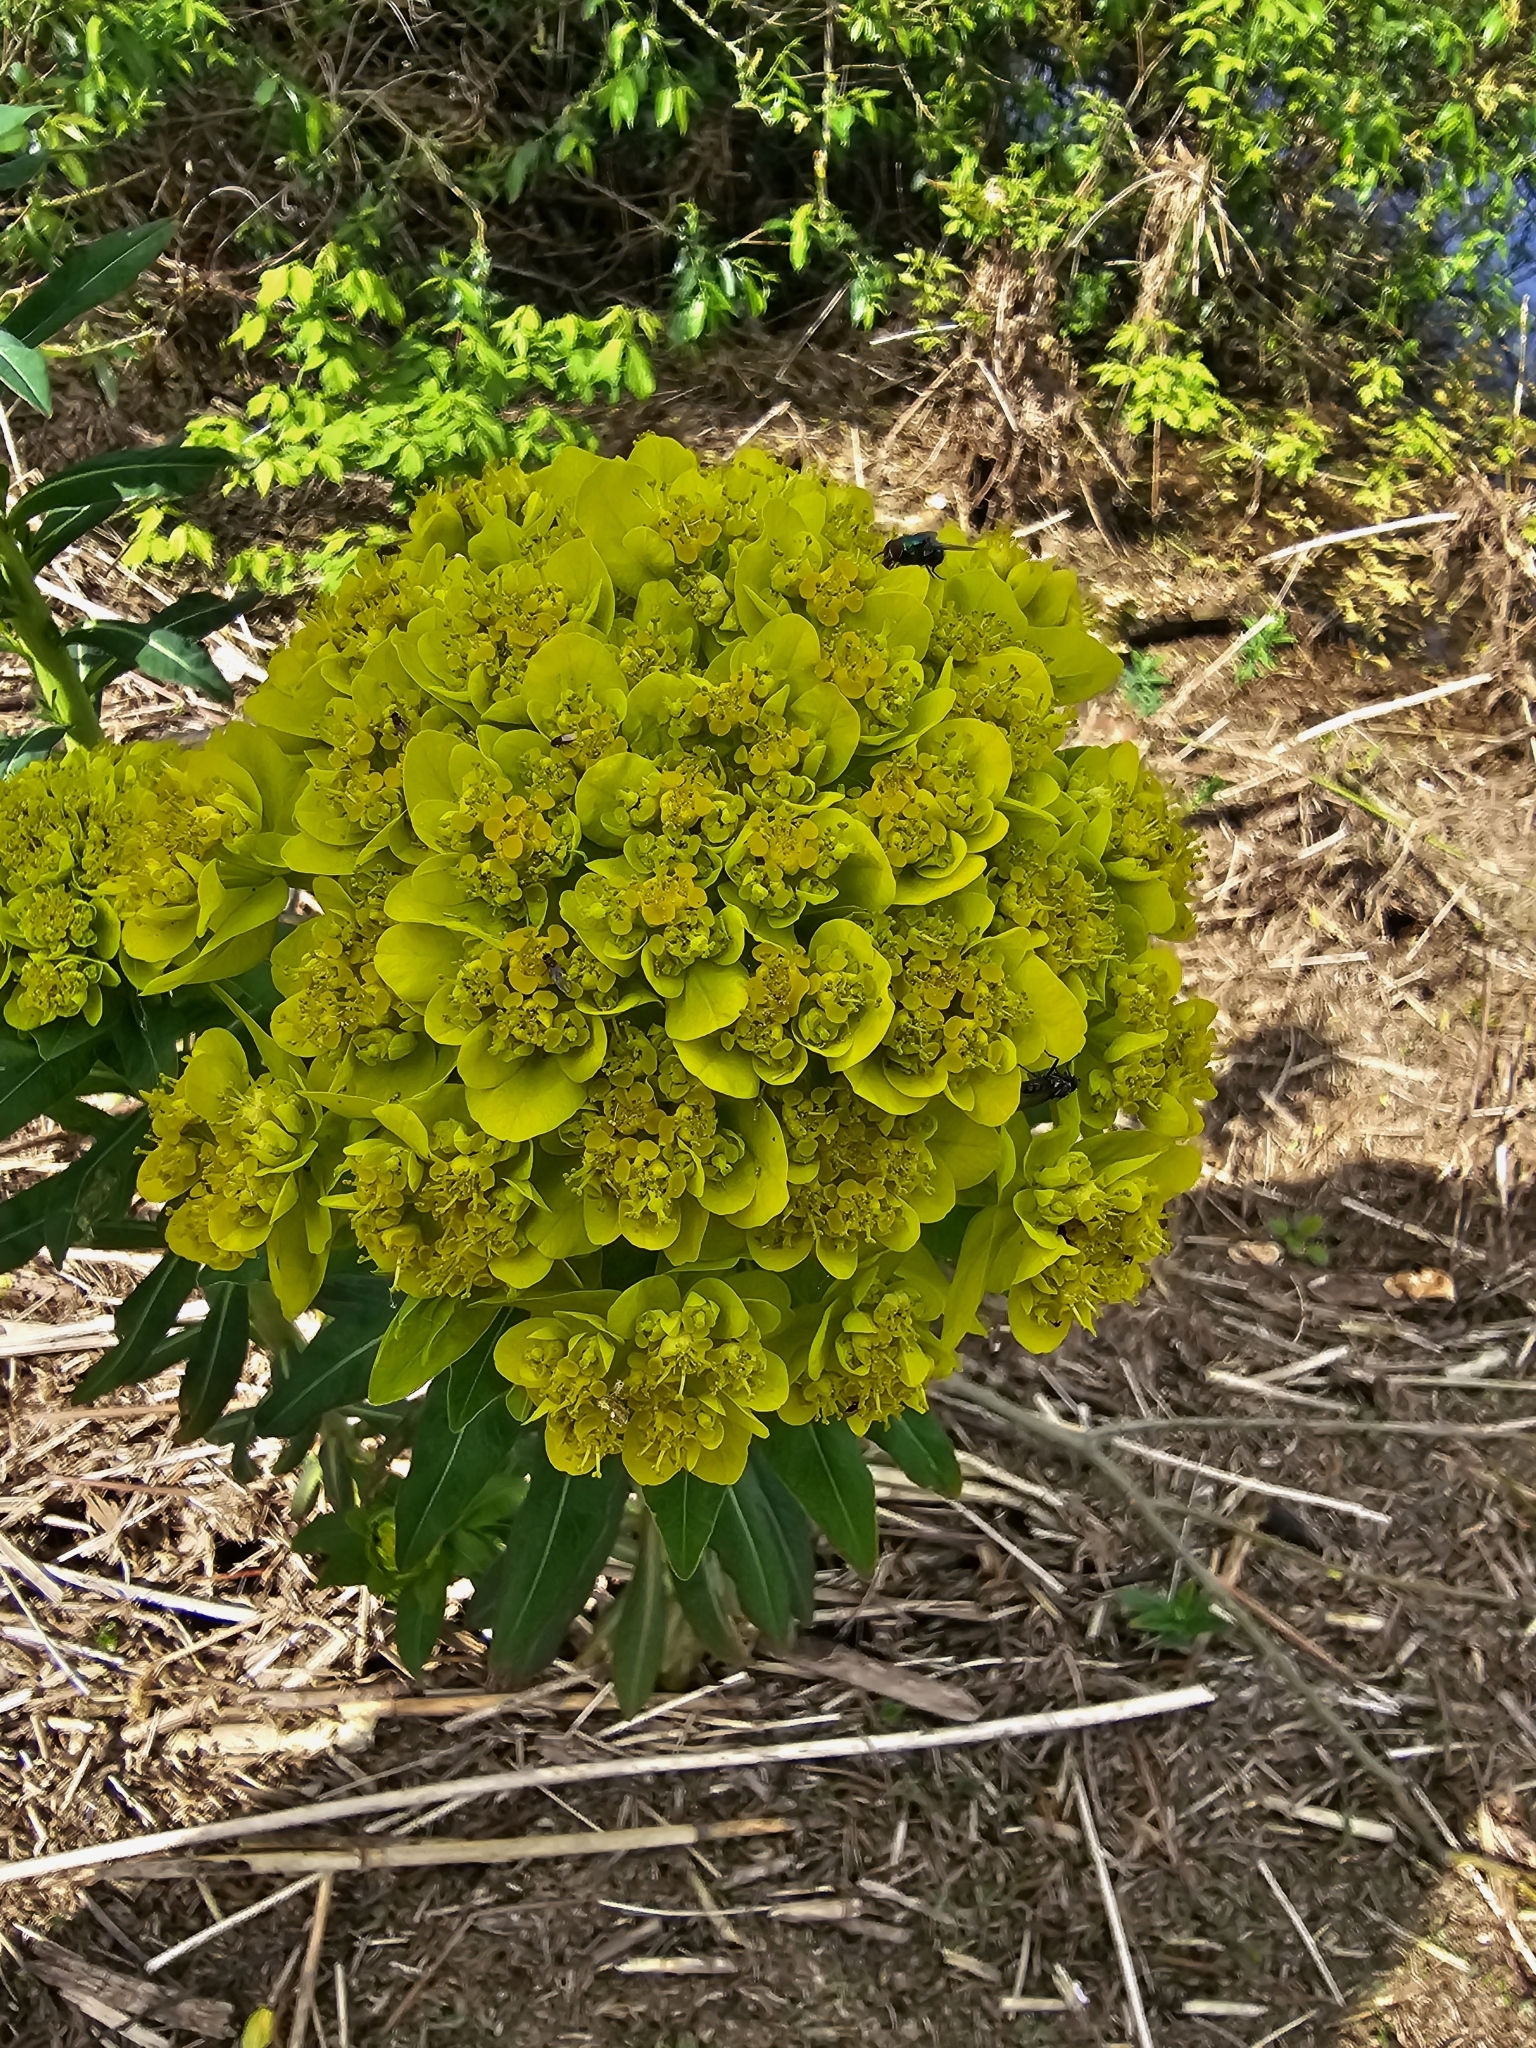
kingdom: Plantae
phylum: Tracheophyta
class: Magnoliopsida
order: Malpighiales
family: Euphorbiaceae
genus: Euphorbia
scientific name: Euphorbia palustris
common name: Marsh spurge
